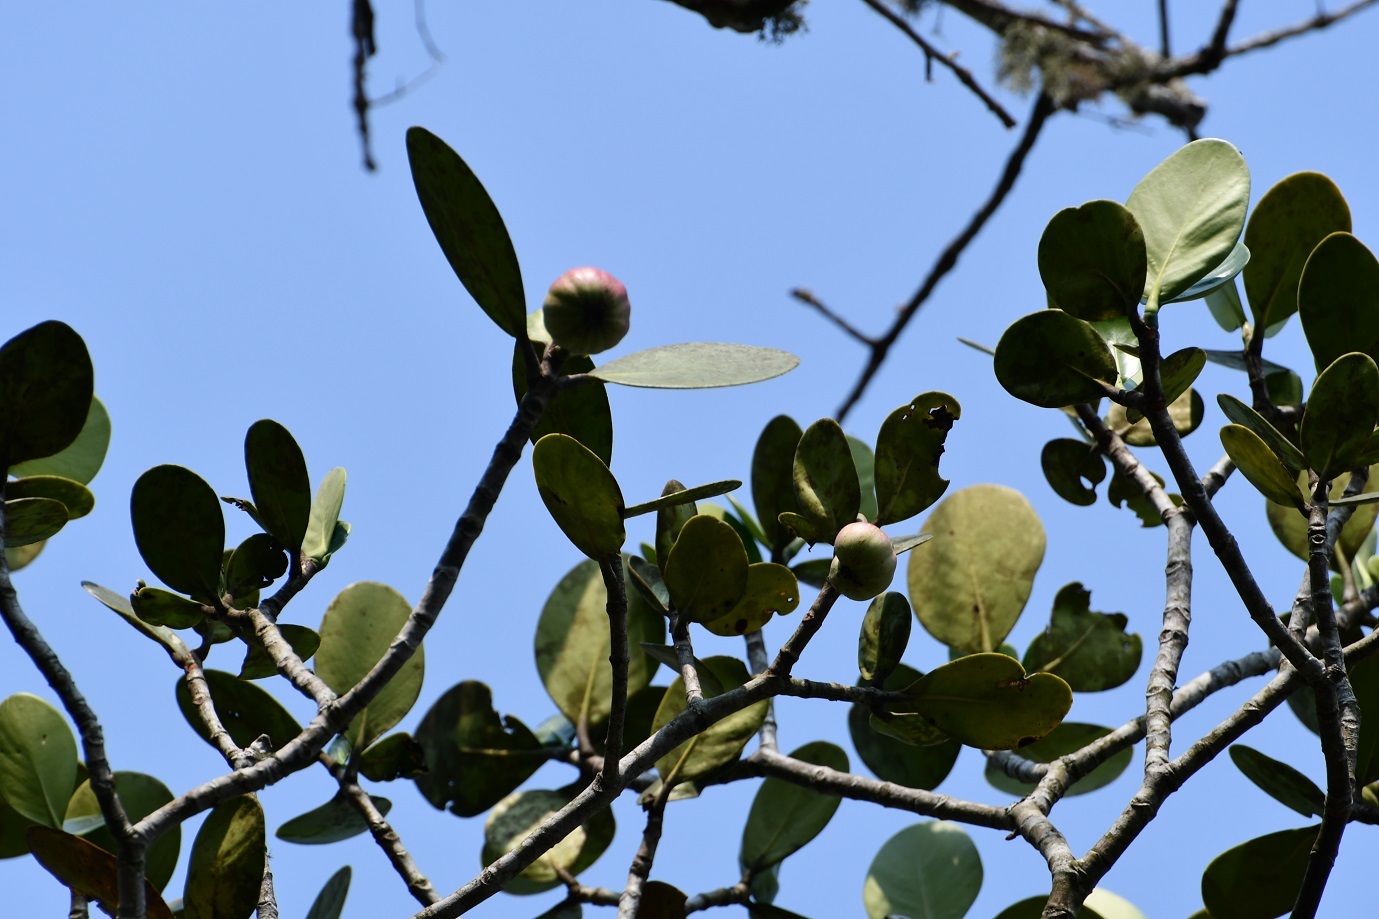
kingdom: Plantae
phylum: Tracheophyta
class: Magnoliopsida
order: Malpighiales
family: Clusiaceae
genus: Clusia
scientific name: Clusia flava
